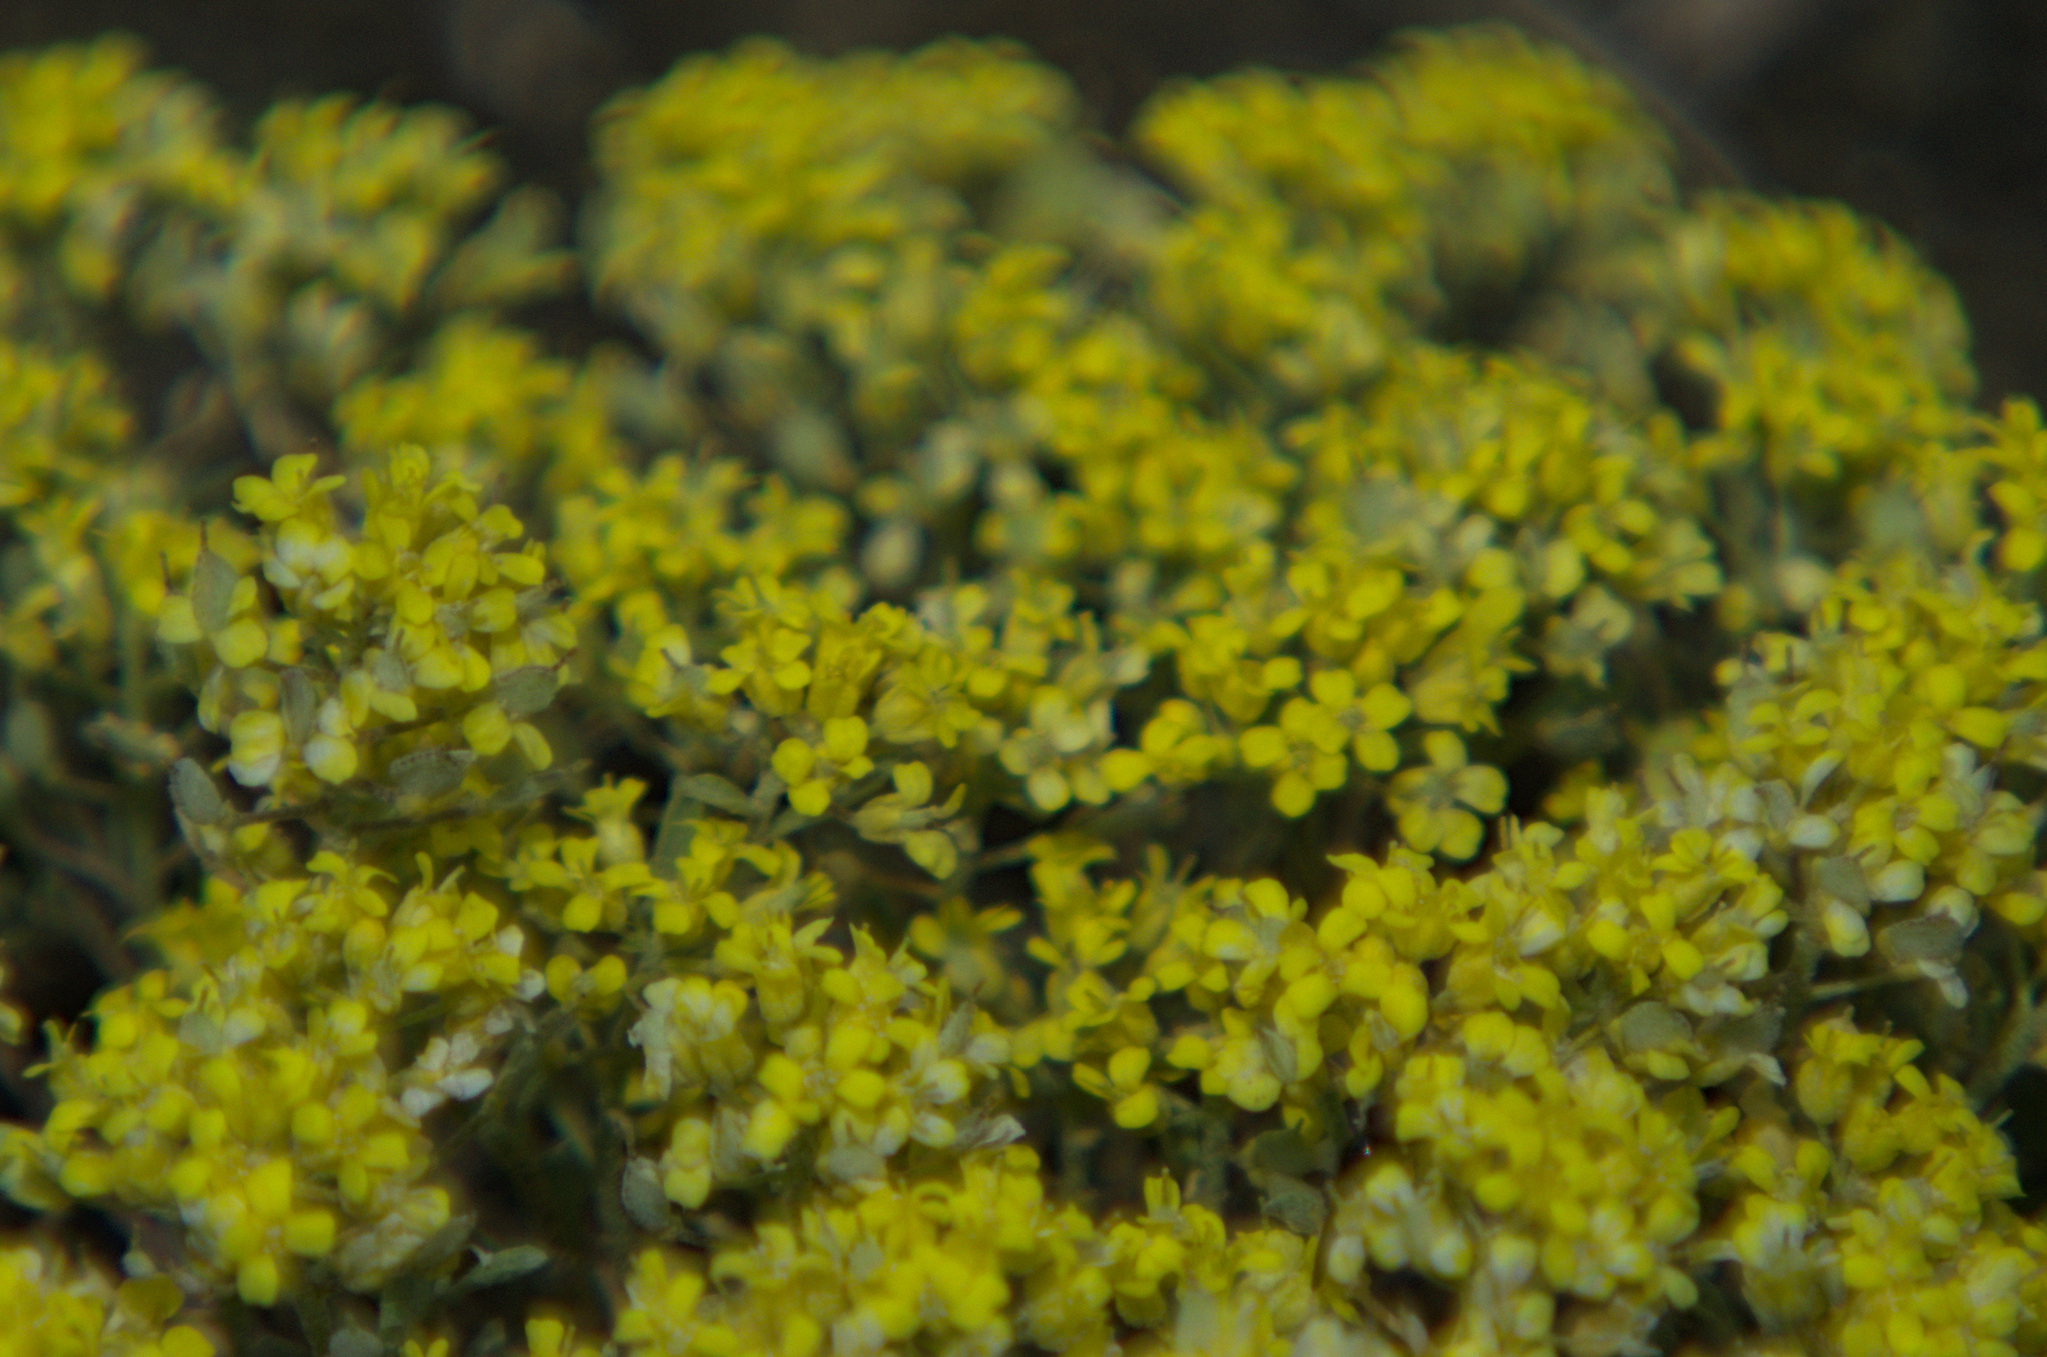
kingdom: Plantae
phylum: Tracheophyta
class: Magnoliopsida
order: Brassicales
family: Brassicaceae
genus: Odontarrhena
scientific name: Odontarrhena obovata
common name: American alyssum
